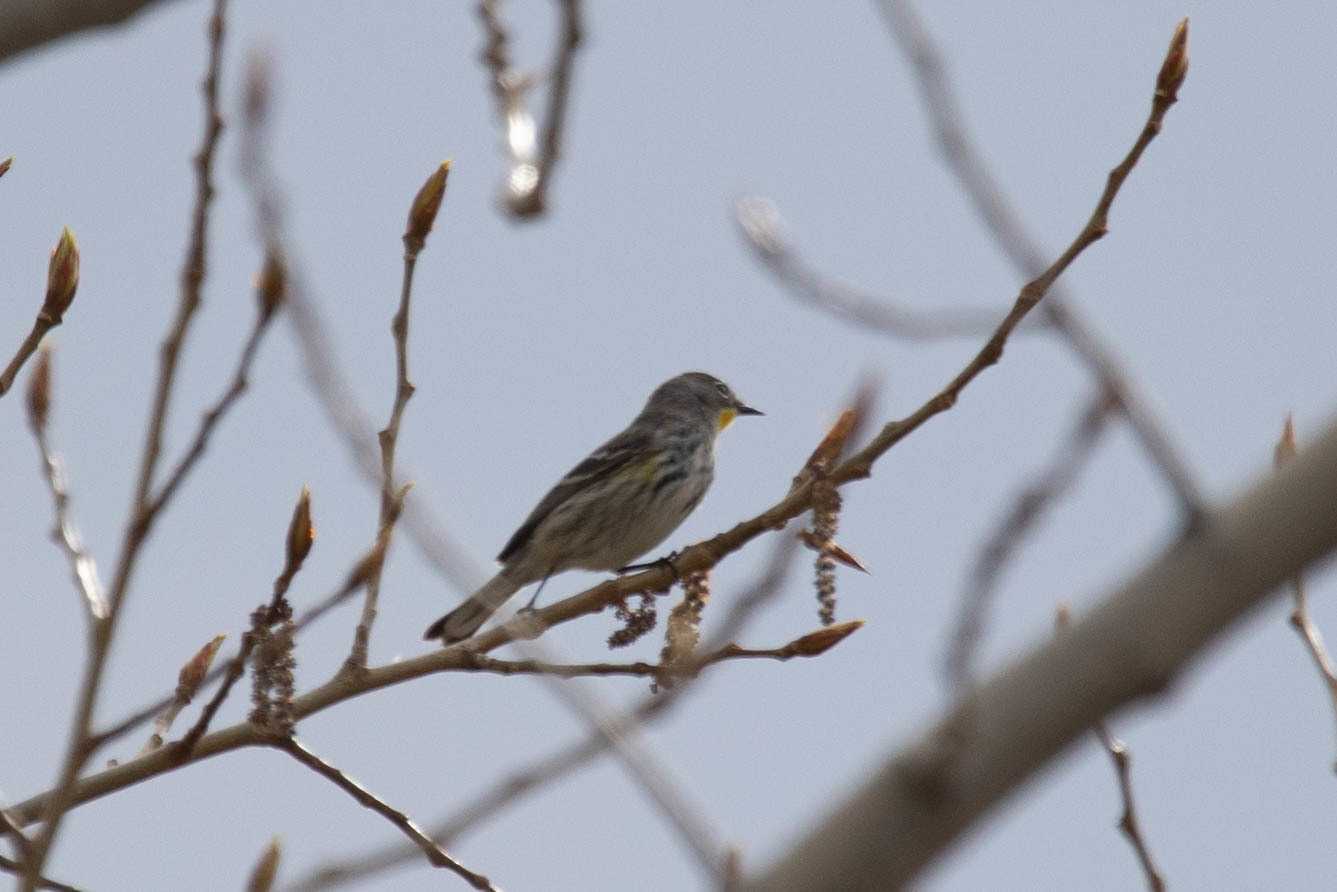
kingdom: Animalia
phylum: Chordata
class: Aves
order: Passeriformes
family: Parulidae
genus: Setophaga
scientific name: Setophaga auduboni
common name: Audubon's warbler
